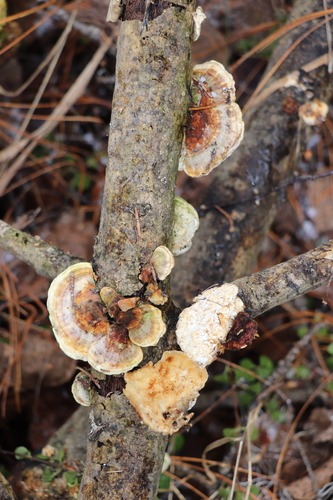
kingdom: Fungi
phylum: Basidiomycota
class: Agaricomycetes
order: Polyporales
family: Polyporaceae
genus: Trametes
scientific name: Trametes ochracea
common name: Ochre bracket
